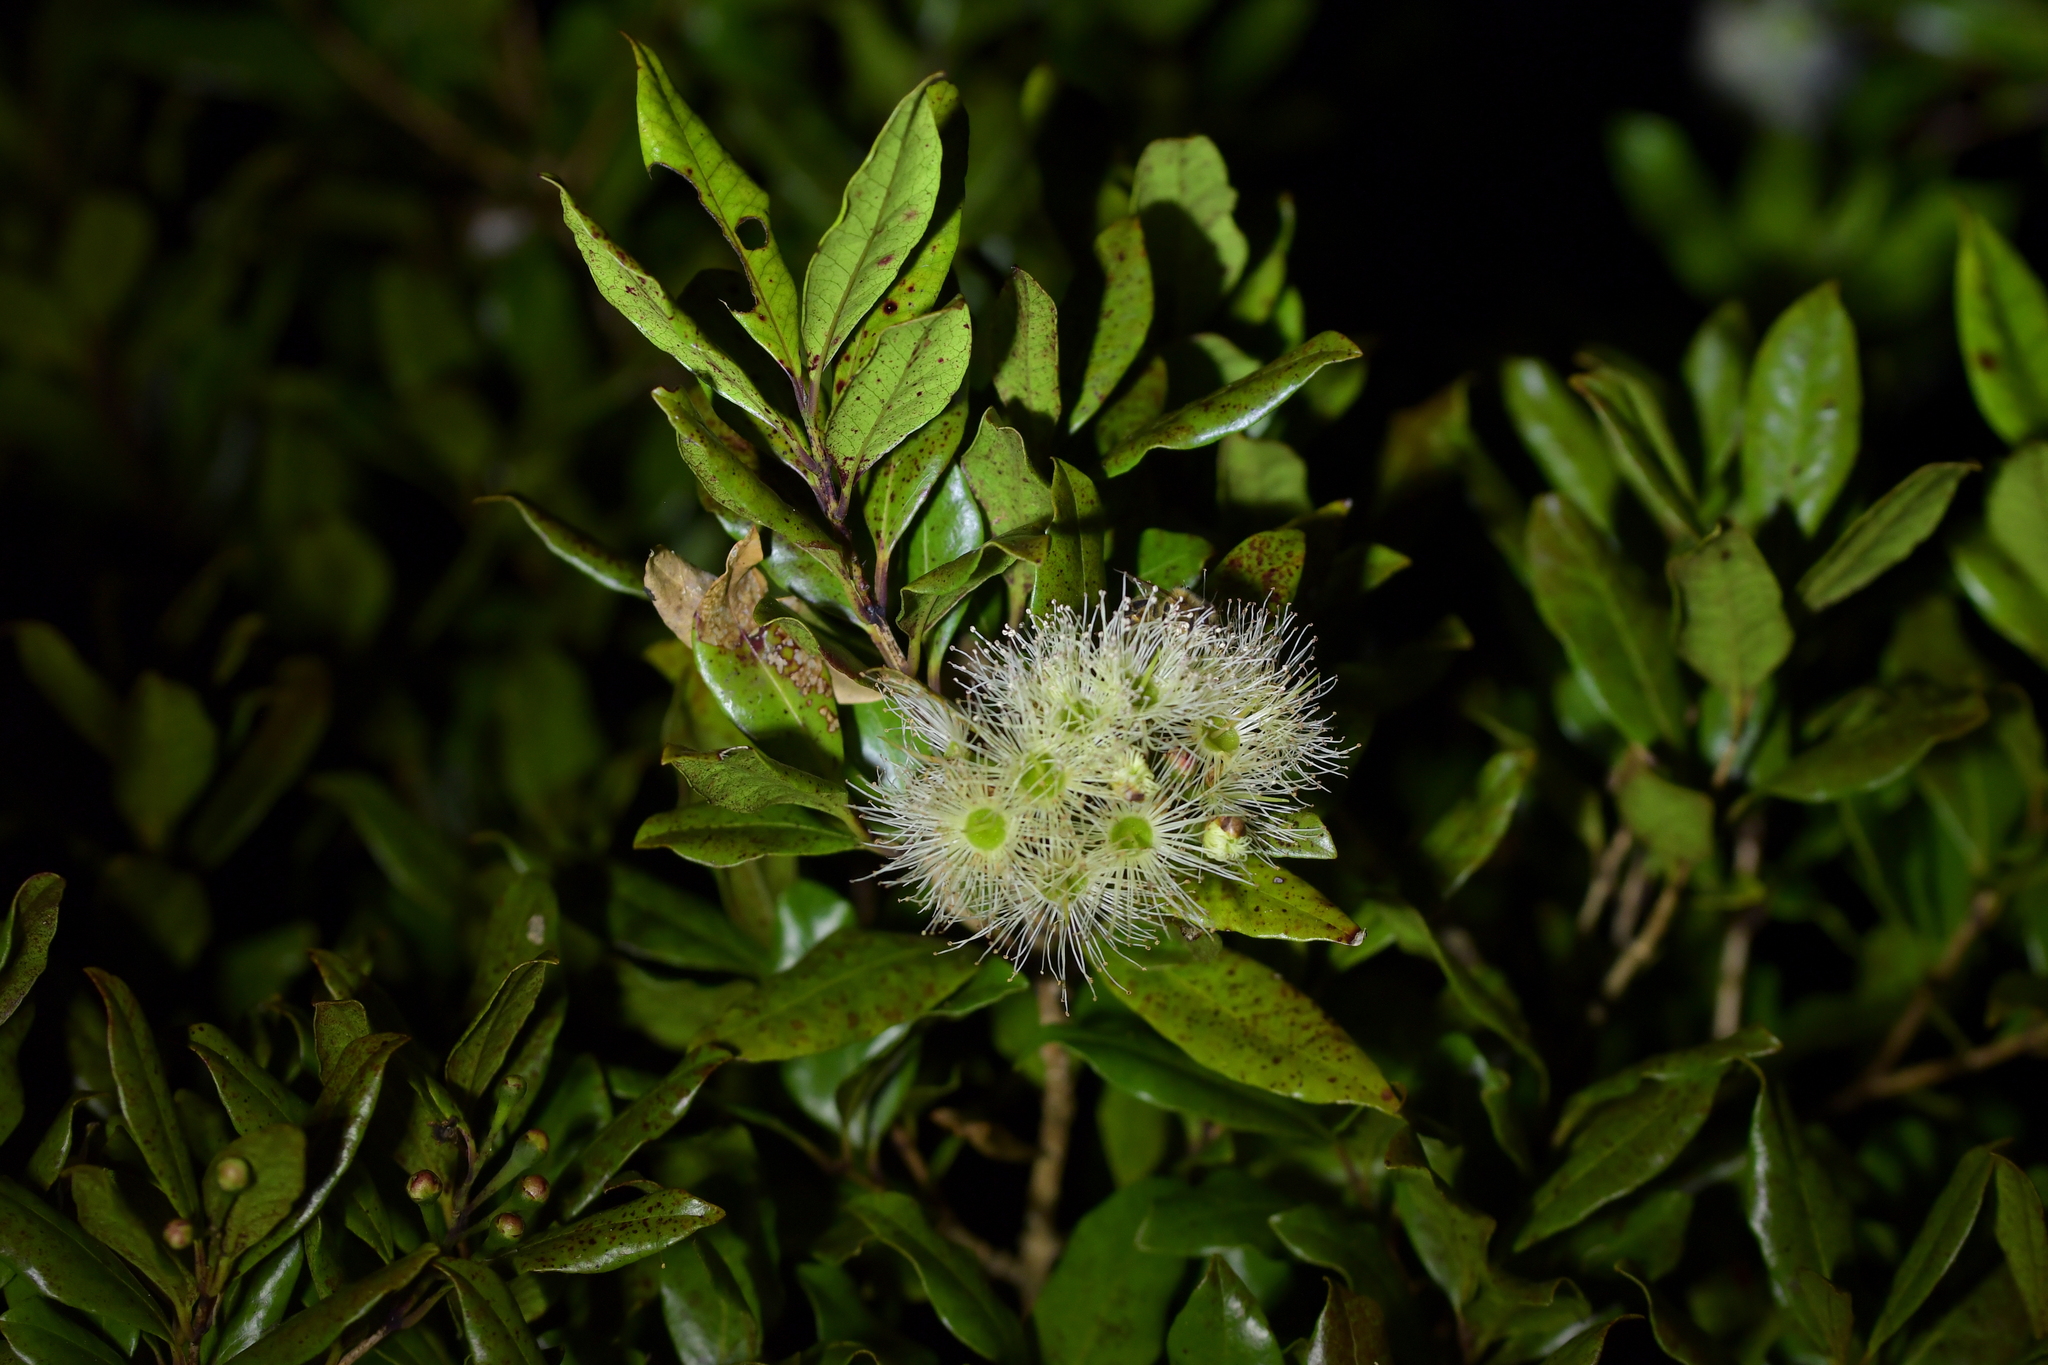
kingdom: Plantae
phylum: Tracheophyta
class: Magnoliopsida
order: Myrtales
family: Myrtaceae
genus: Syzygium
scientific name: Syzygium maire
